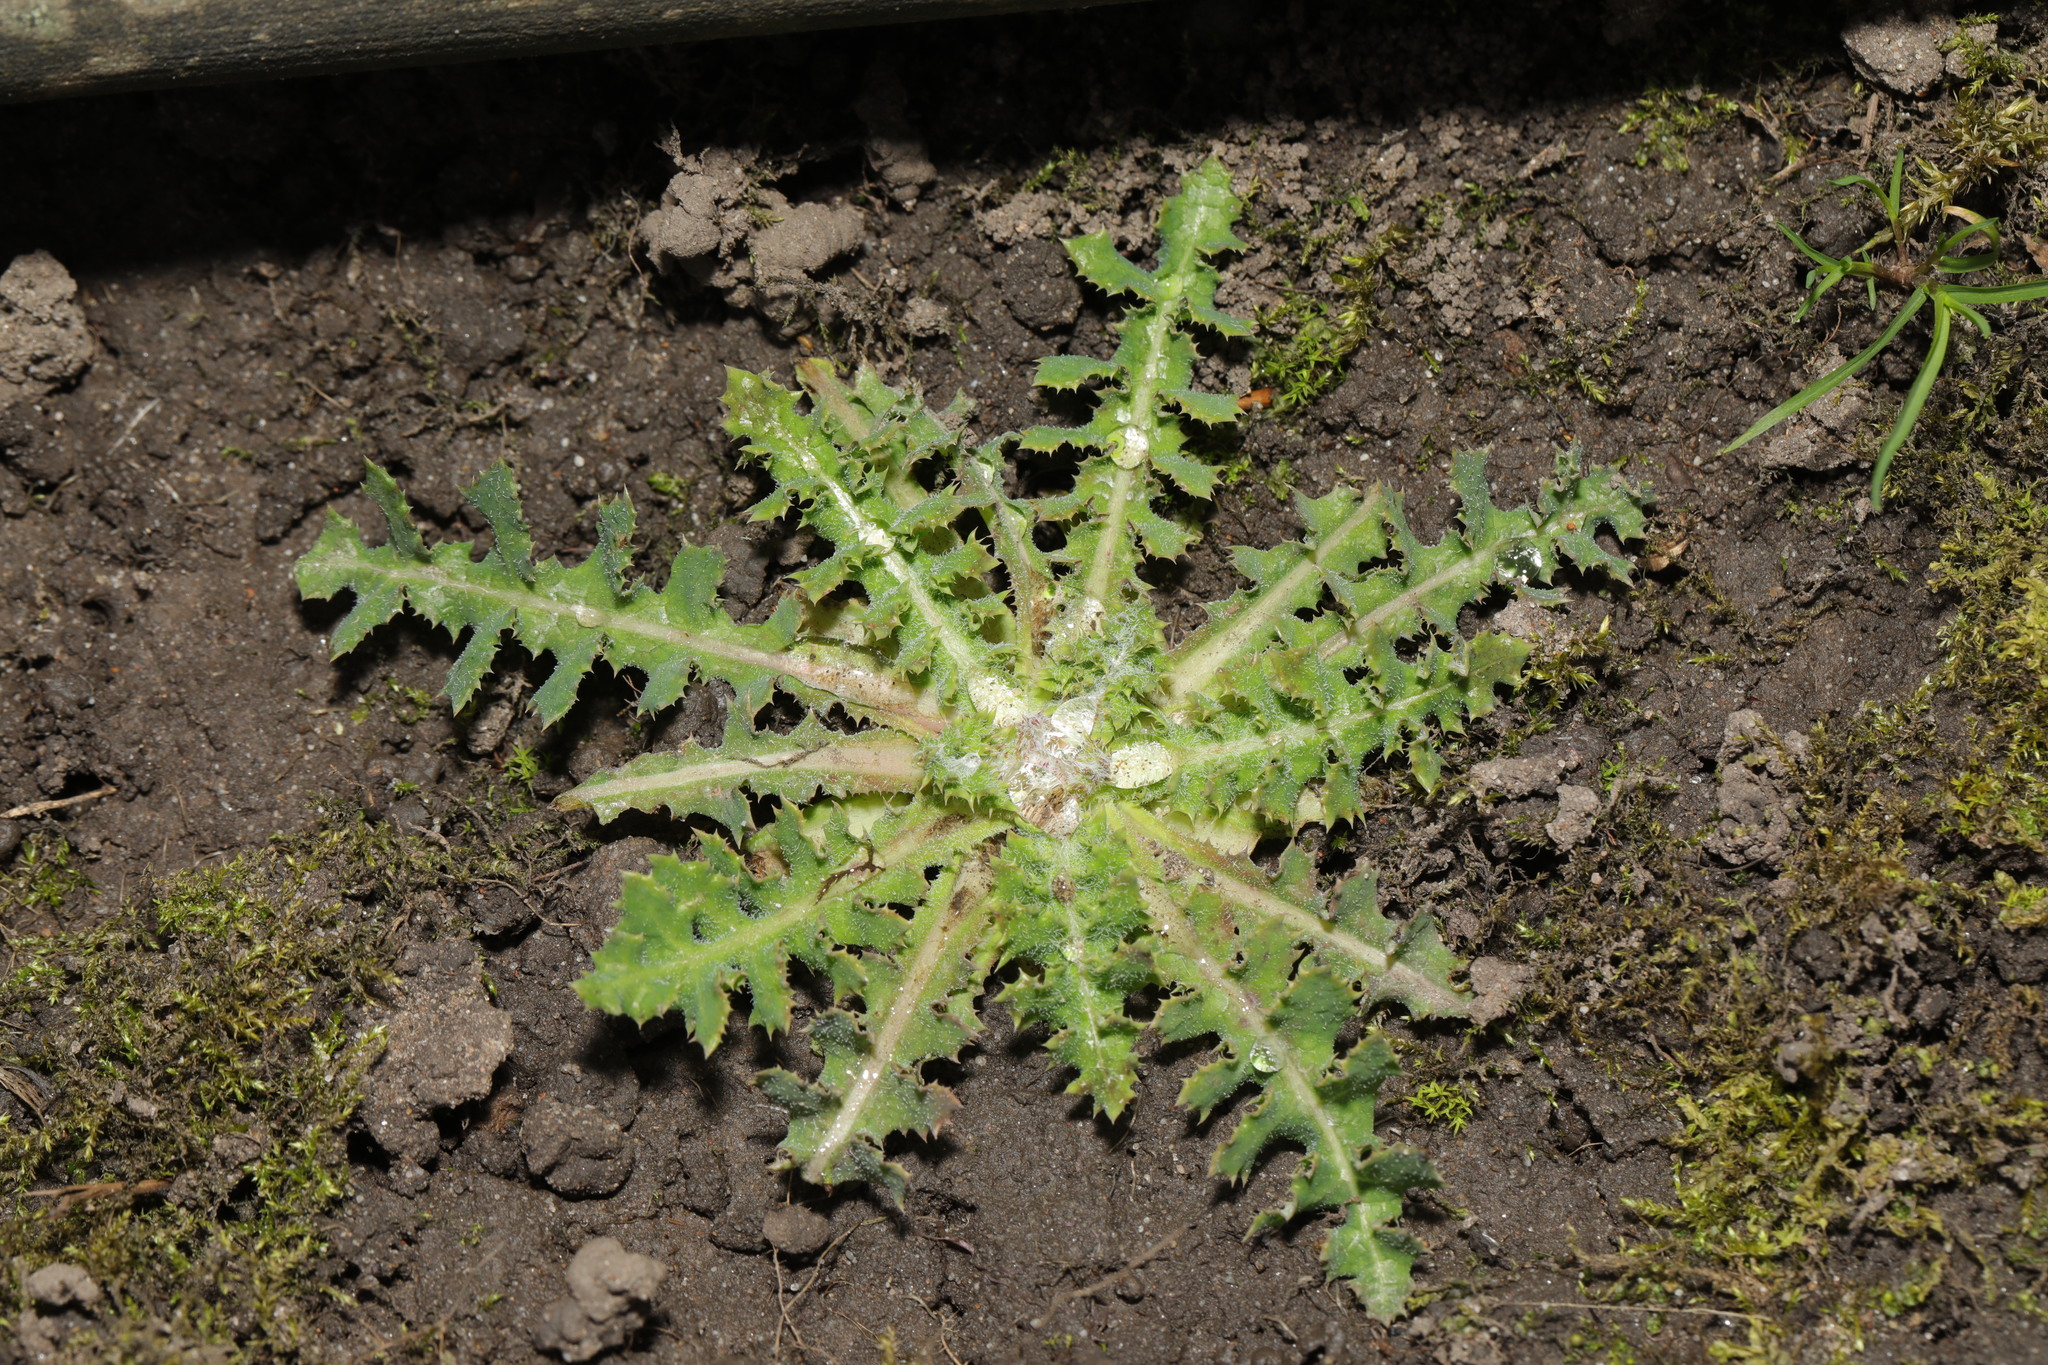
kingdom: Plantae
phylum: Tracheophyta
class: Magnoliopsida
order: Asterales
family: Asteraceae
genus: Sonchus
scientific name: Sonchus asper
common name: Prickly sow-thistle
